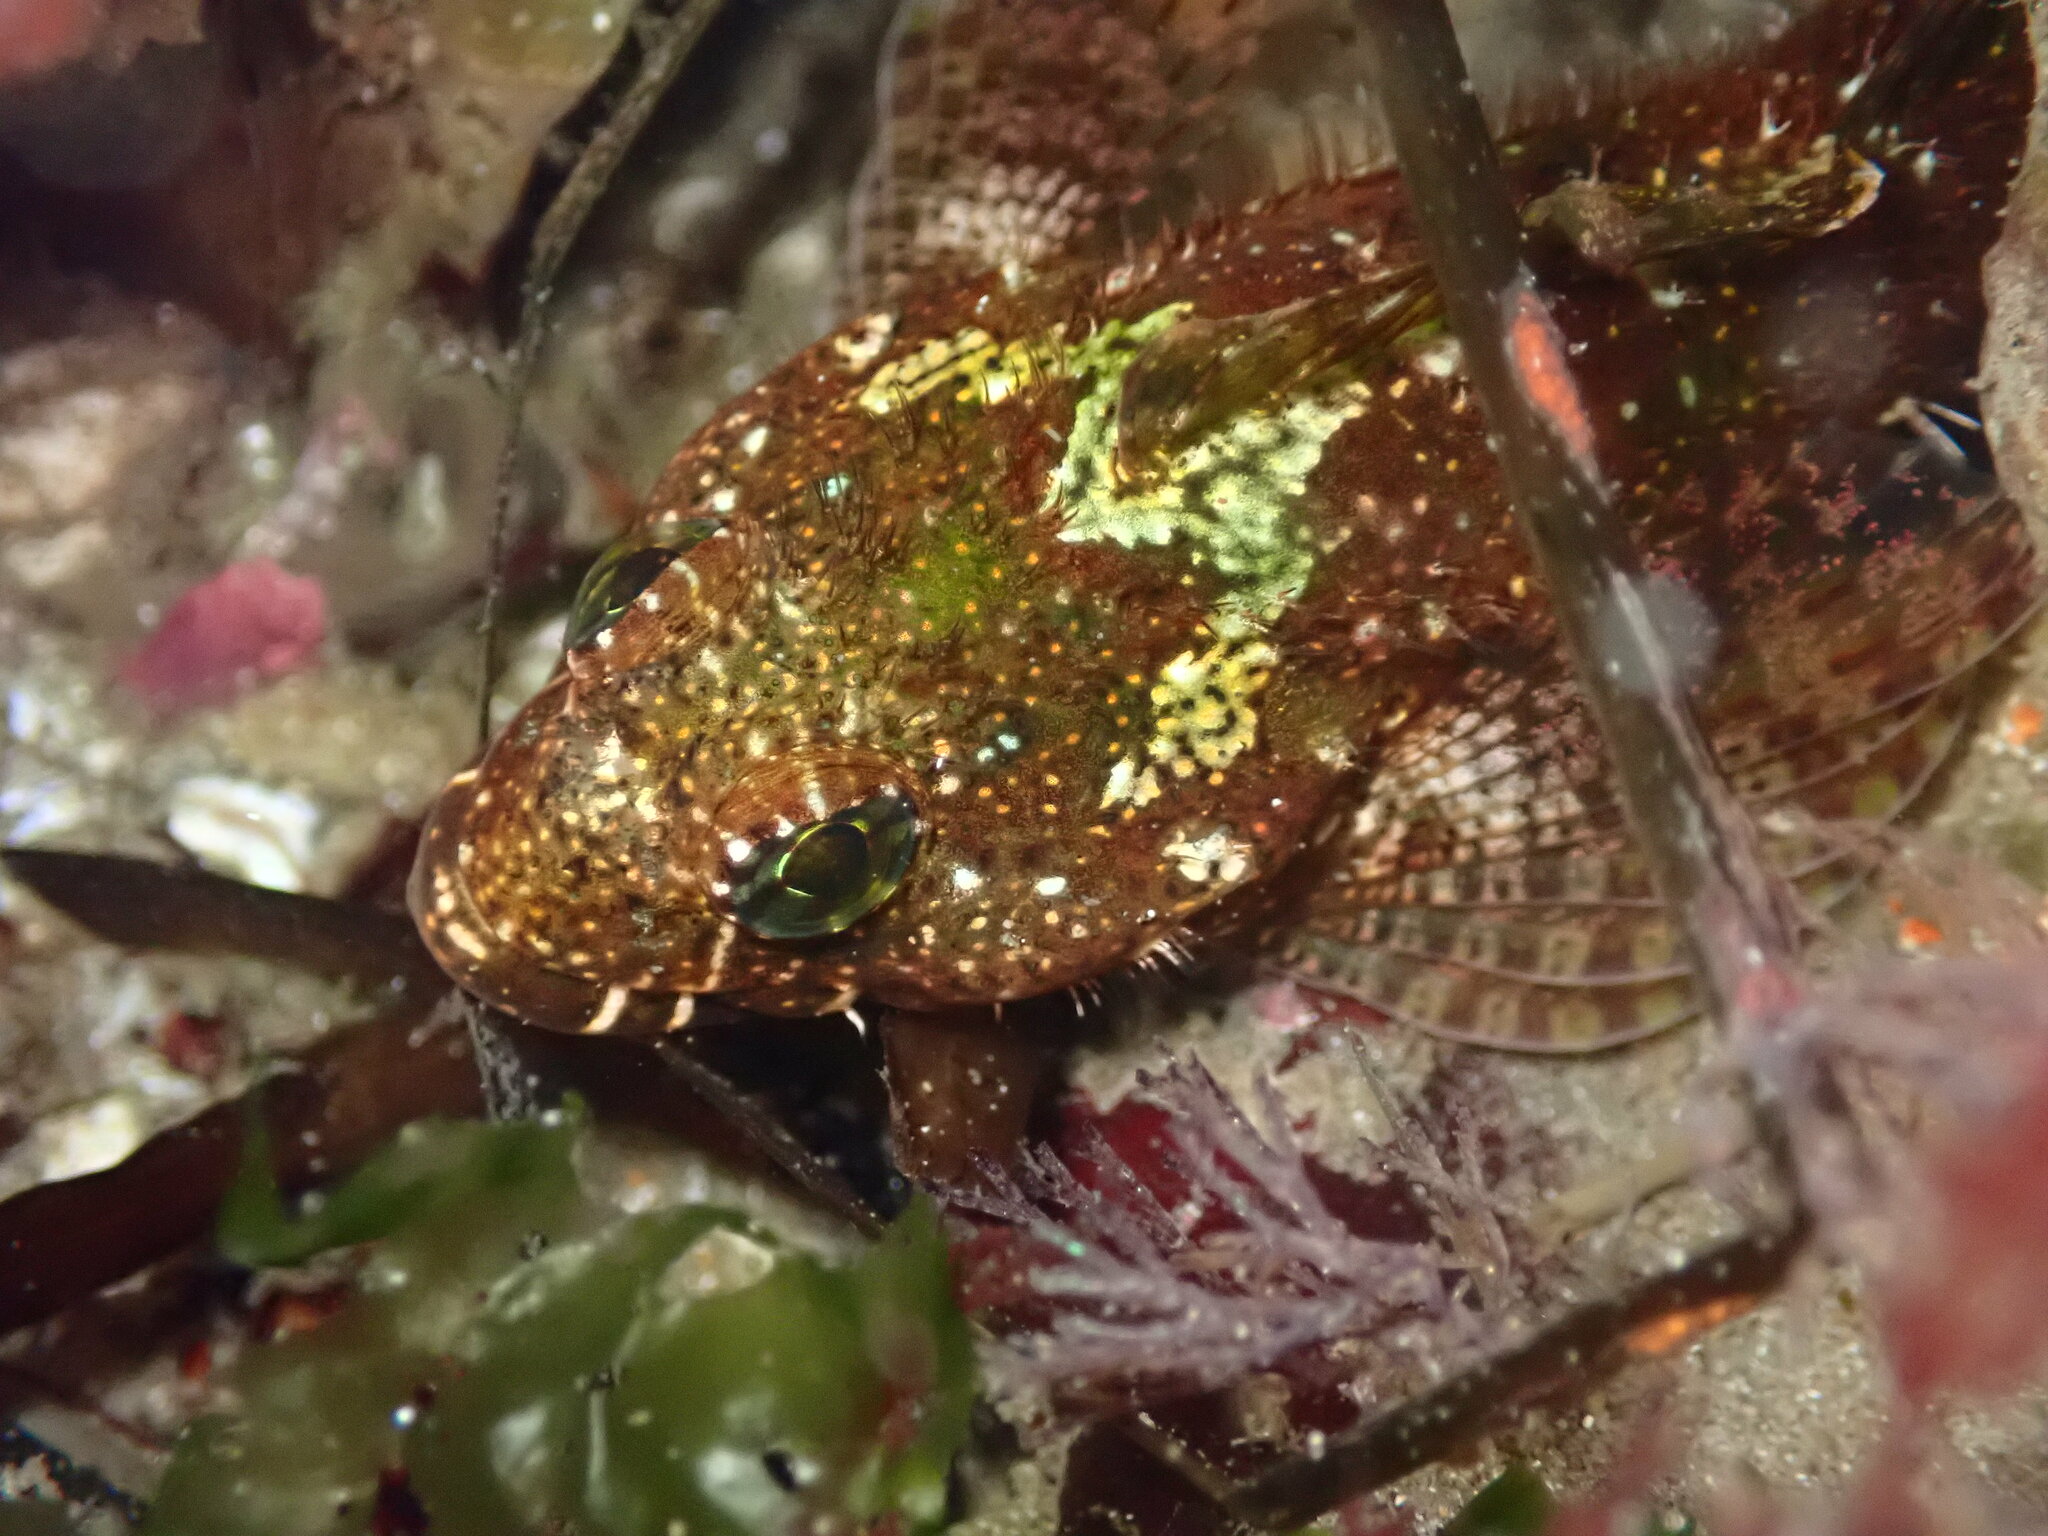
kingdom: Animalia
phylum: Chordata
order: Scorpaeniformes
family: Cottidae
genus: Clinocottus
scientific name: Clinocottus analis
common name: Woolly sculpin
